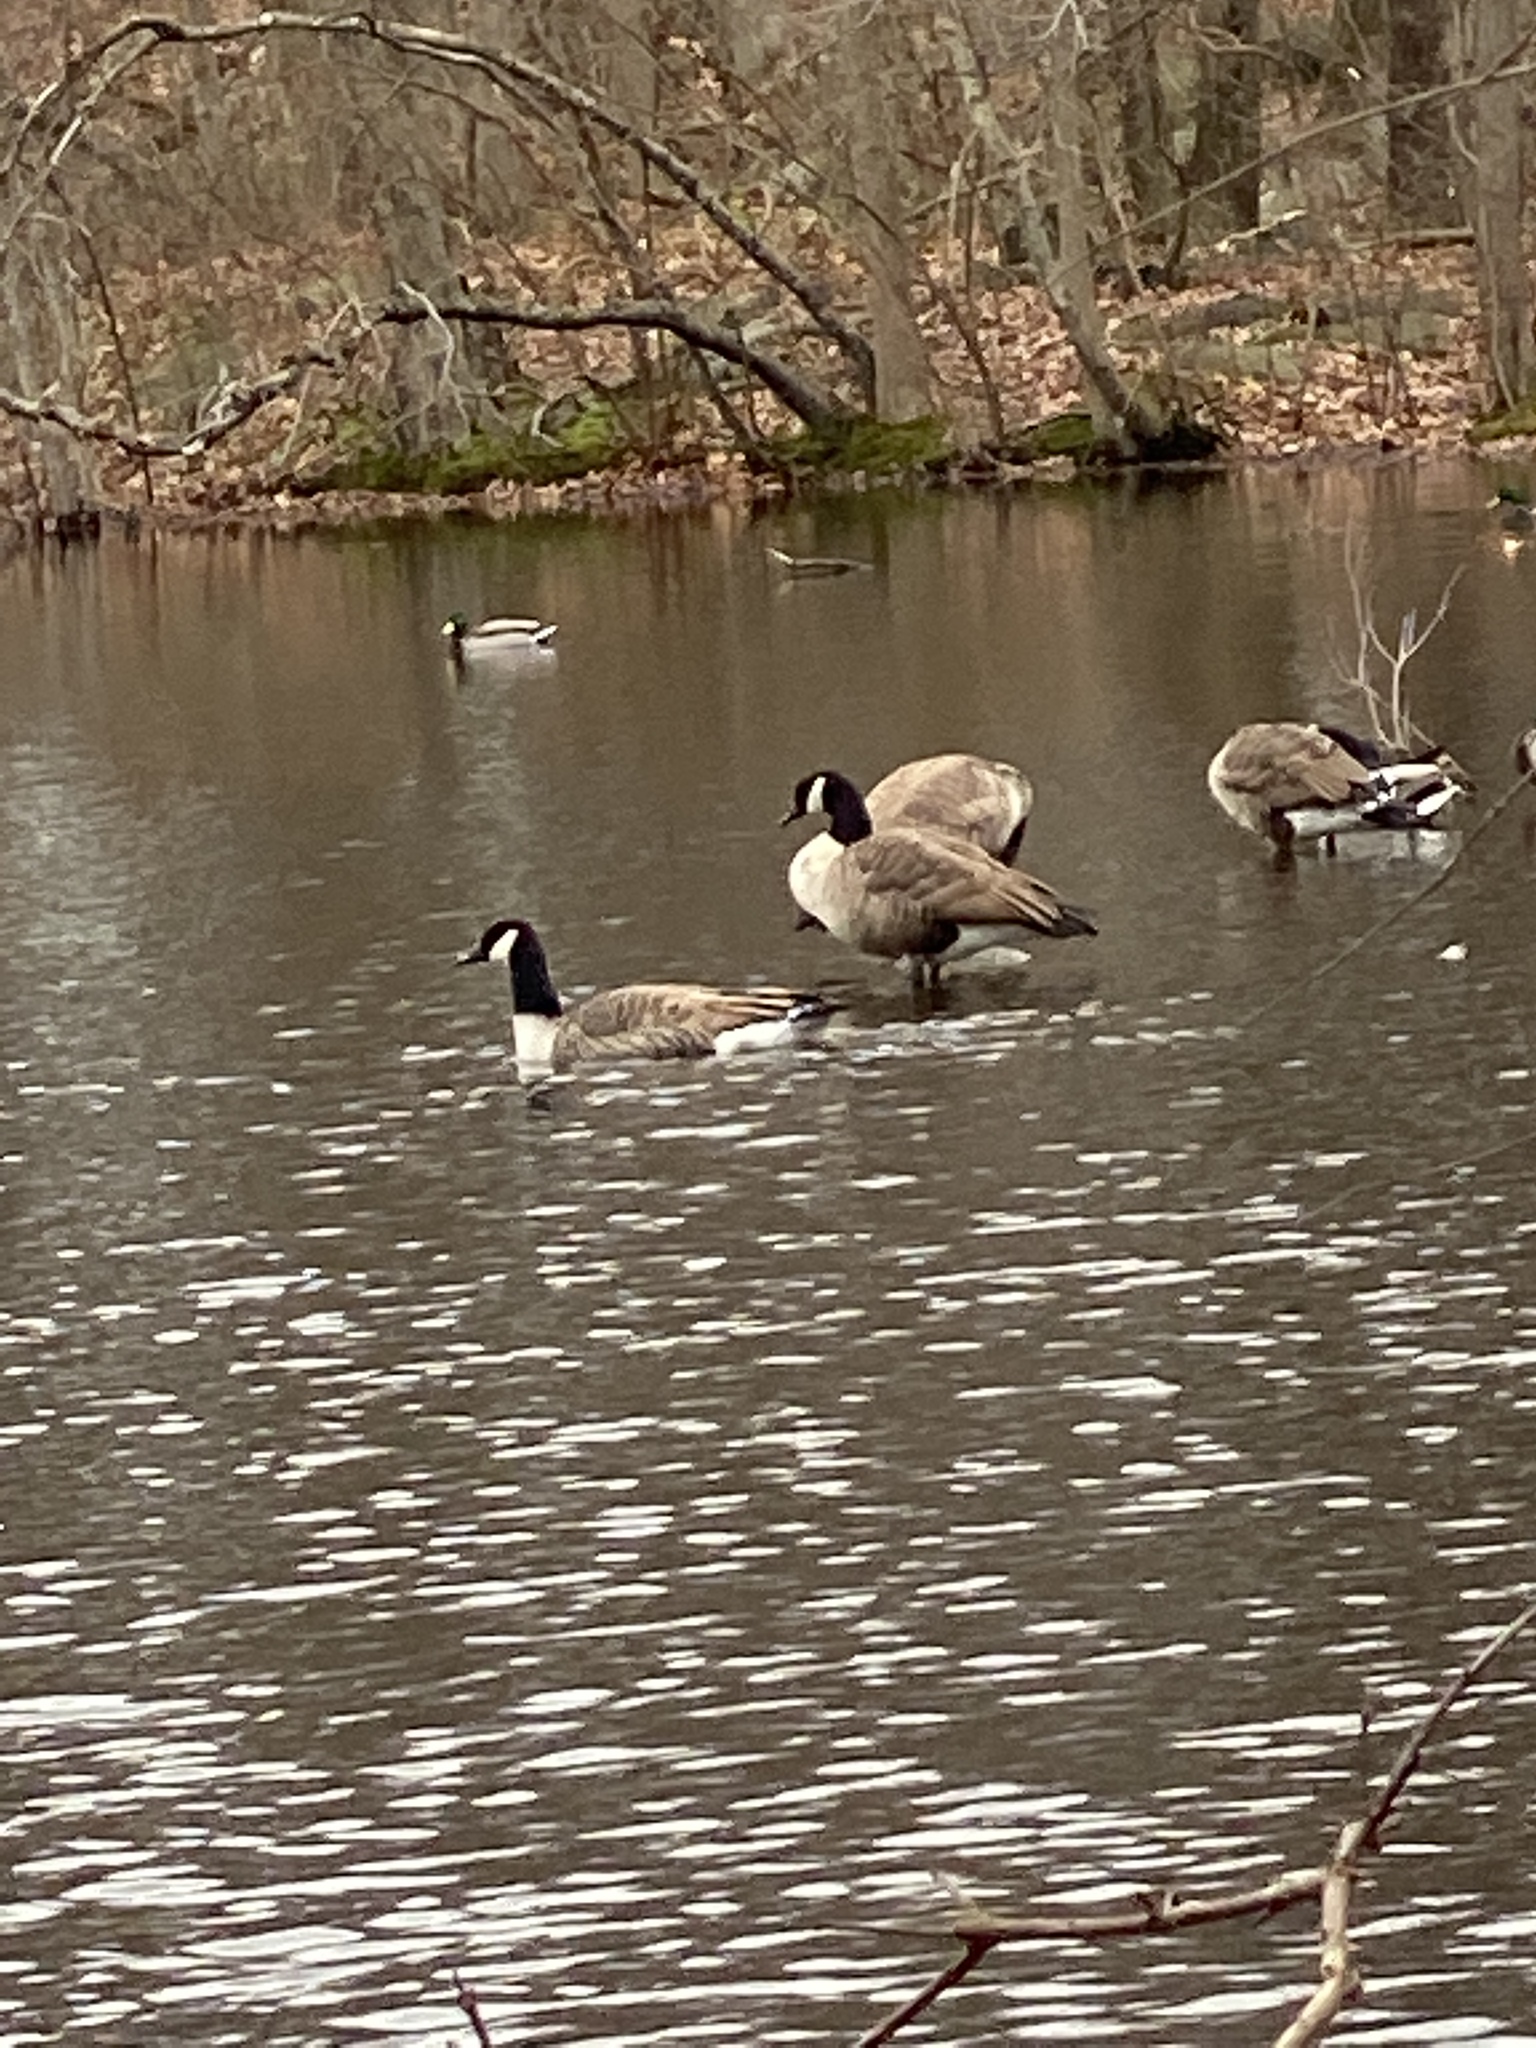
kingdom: Animalia
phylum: Chordata
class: Aves
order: Anseriformes
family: Anatidae
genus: Branta
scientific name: Branta canadensis
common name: Canada goose
